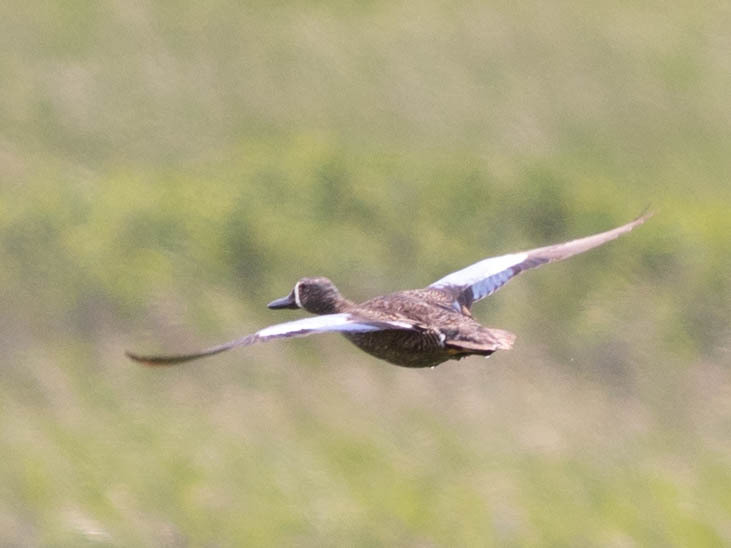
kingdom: Animalia
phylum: Chordata
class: Aves
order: Anseriformes
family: Anatidae
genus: Spatula
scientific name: Spatula discors
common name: Blue-winged teal
